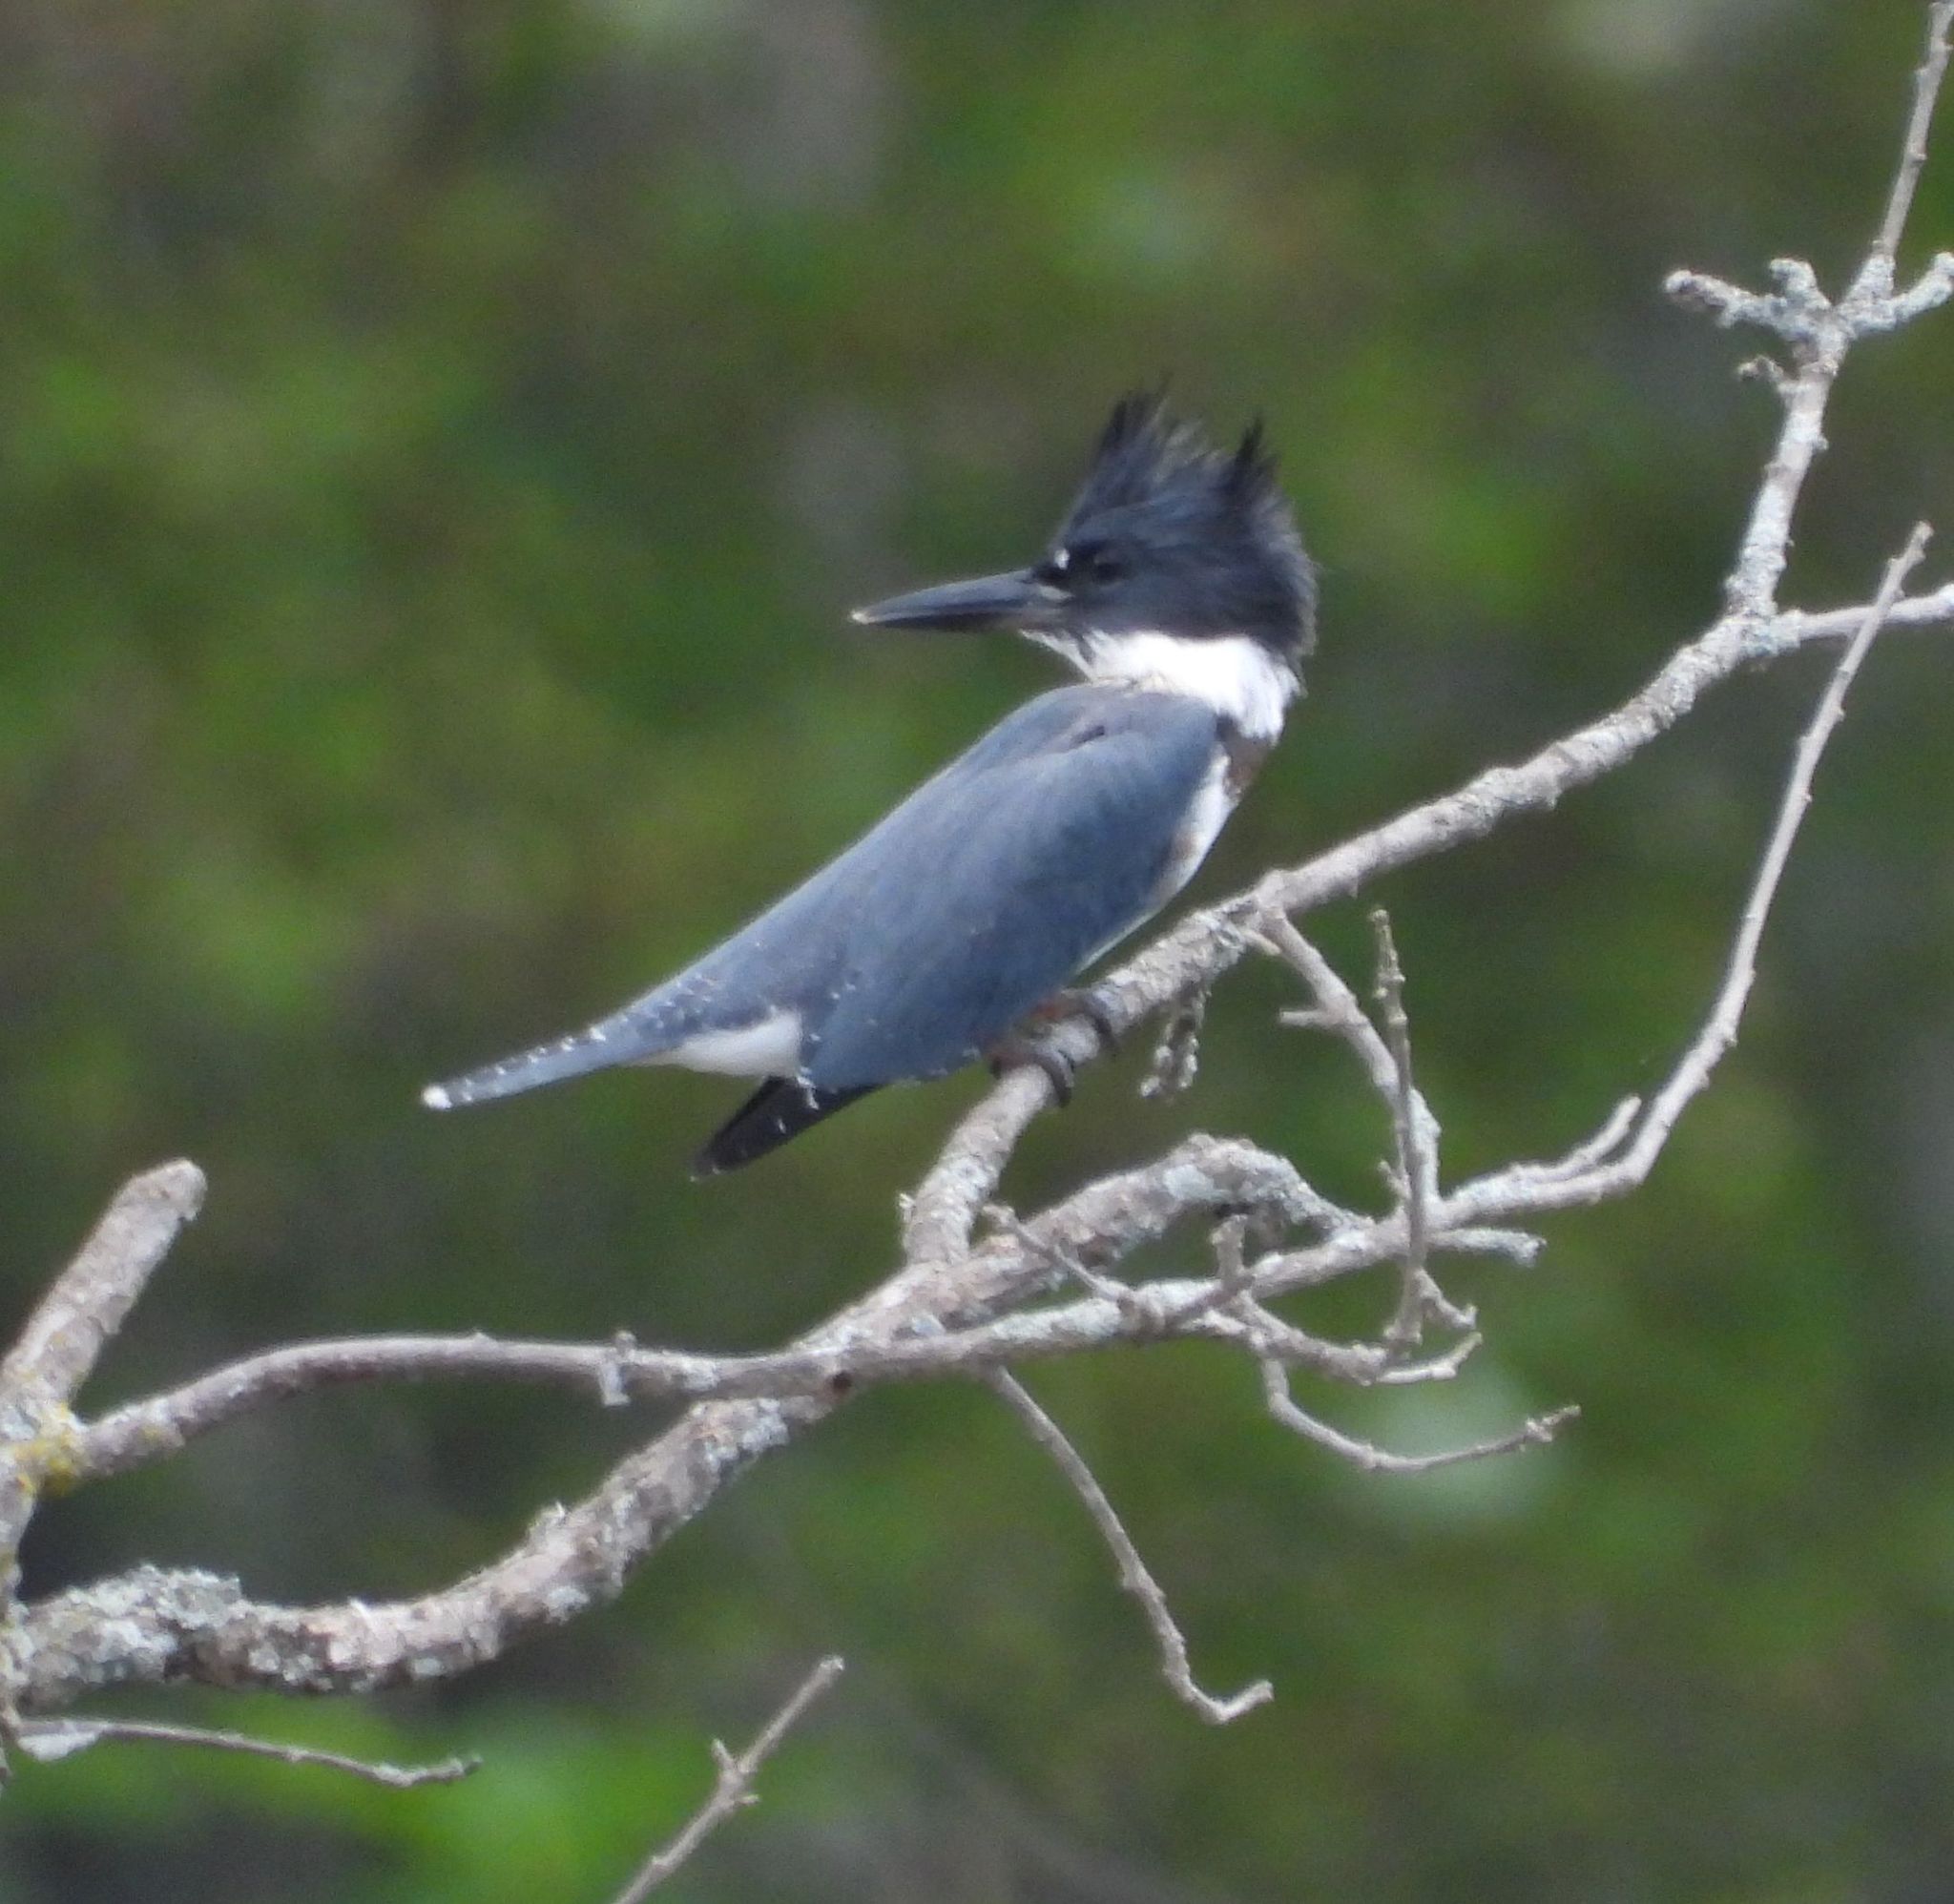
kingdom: Animalia
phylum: Chordata
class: Aves
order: Coraciiformes
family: Alcedinidae
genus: Megaceryle
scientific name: Megaceryle alcyon
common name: Belted kingfisher
